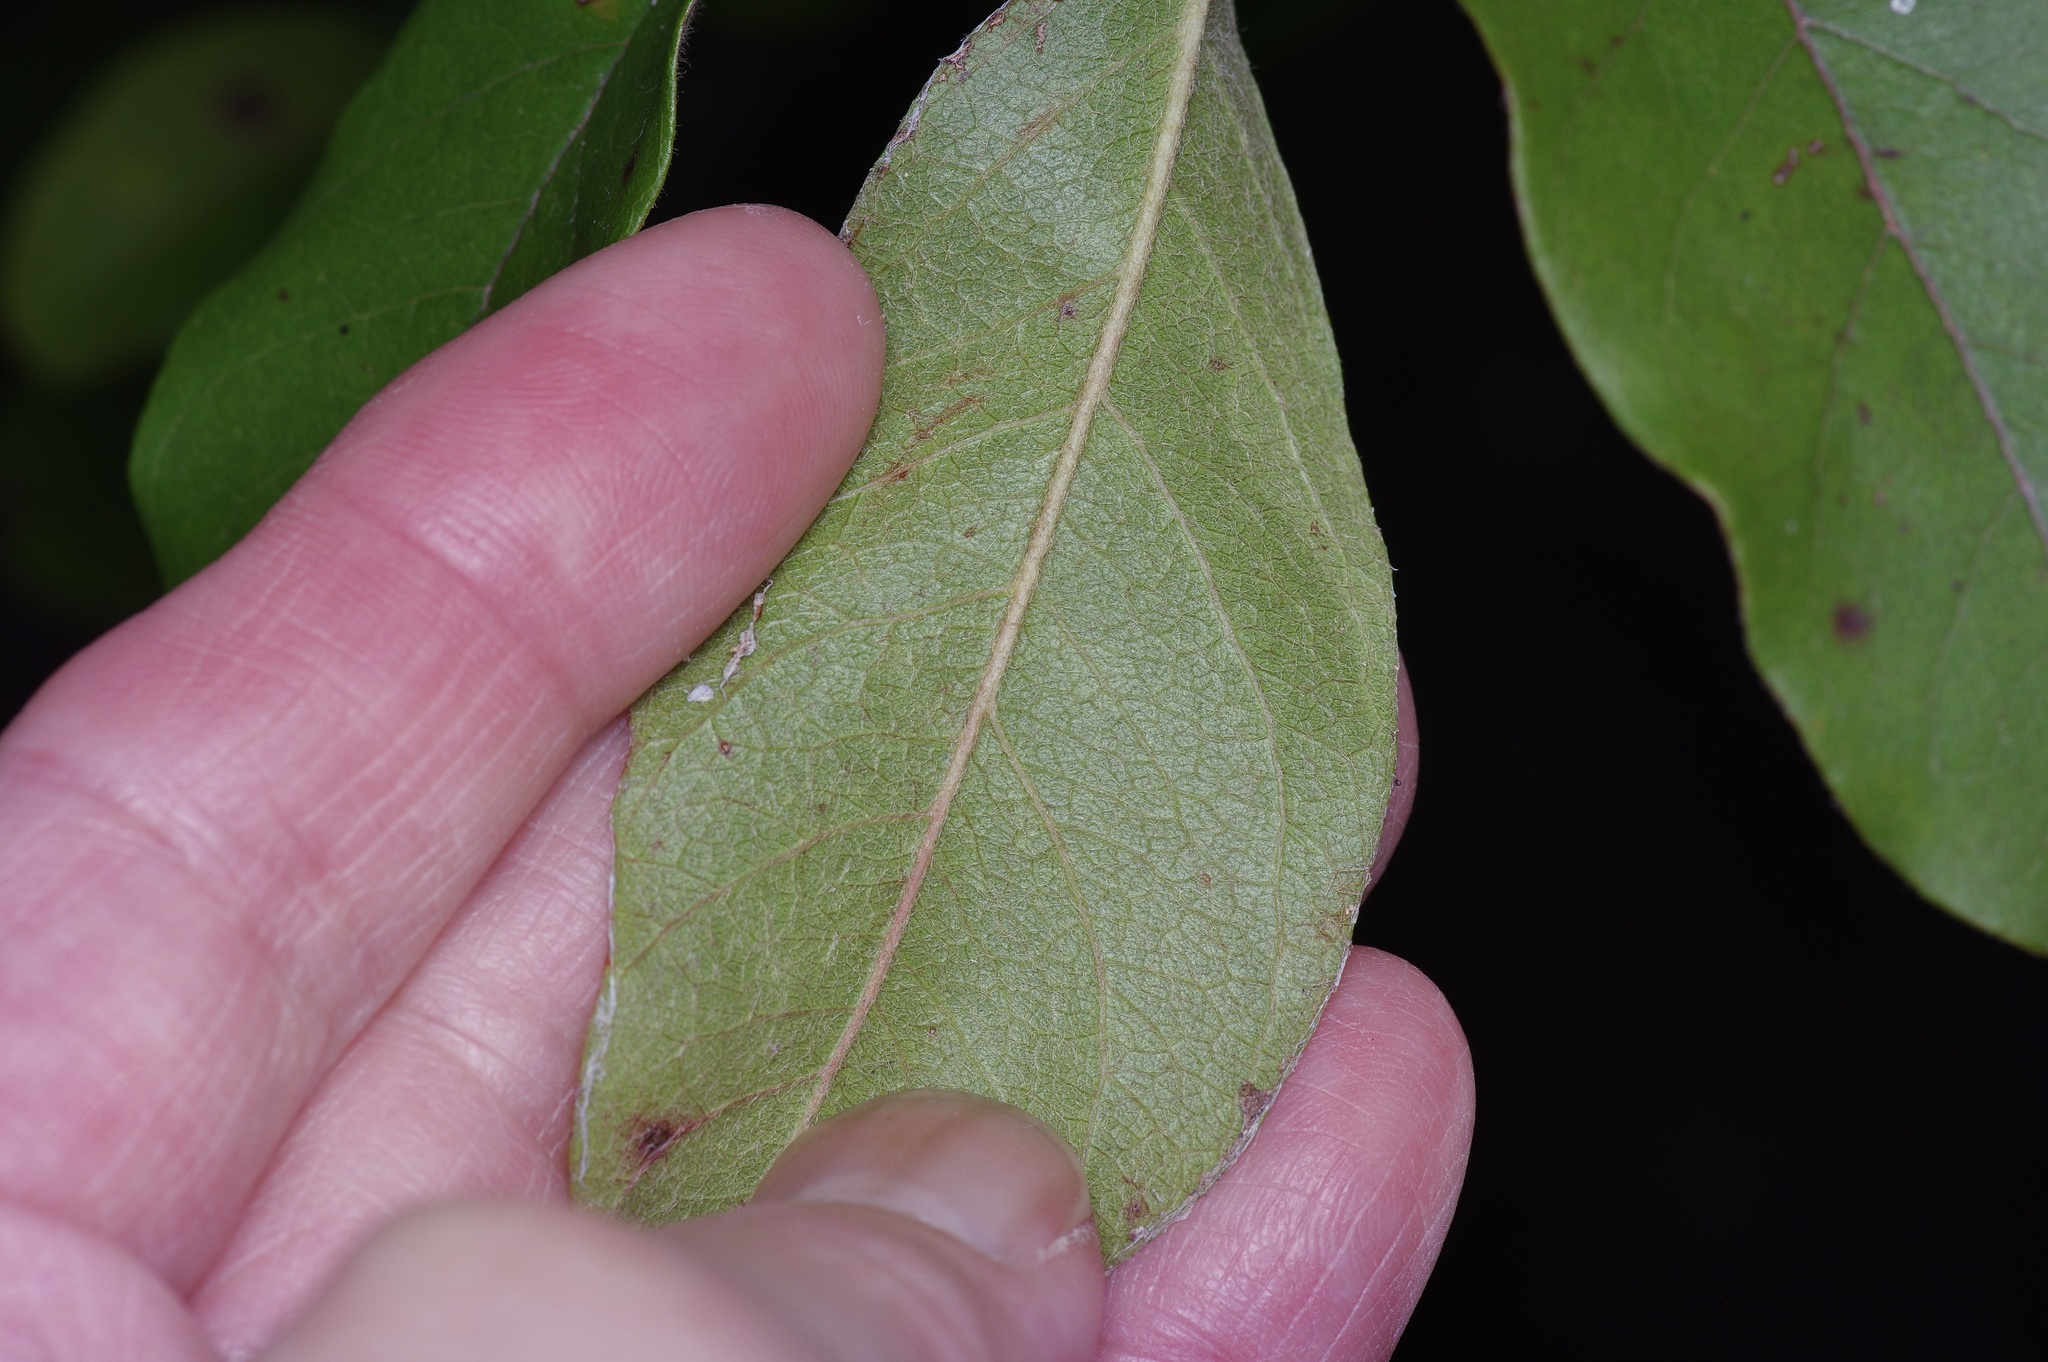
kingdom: Plantae
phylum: Tracheophyta
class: Magnoliopsida
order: Ericales
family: Sapotaceae
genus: Sideroxylon
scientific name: Sideroxylon lanuginosum
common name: Chittamwood
